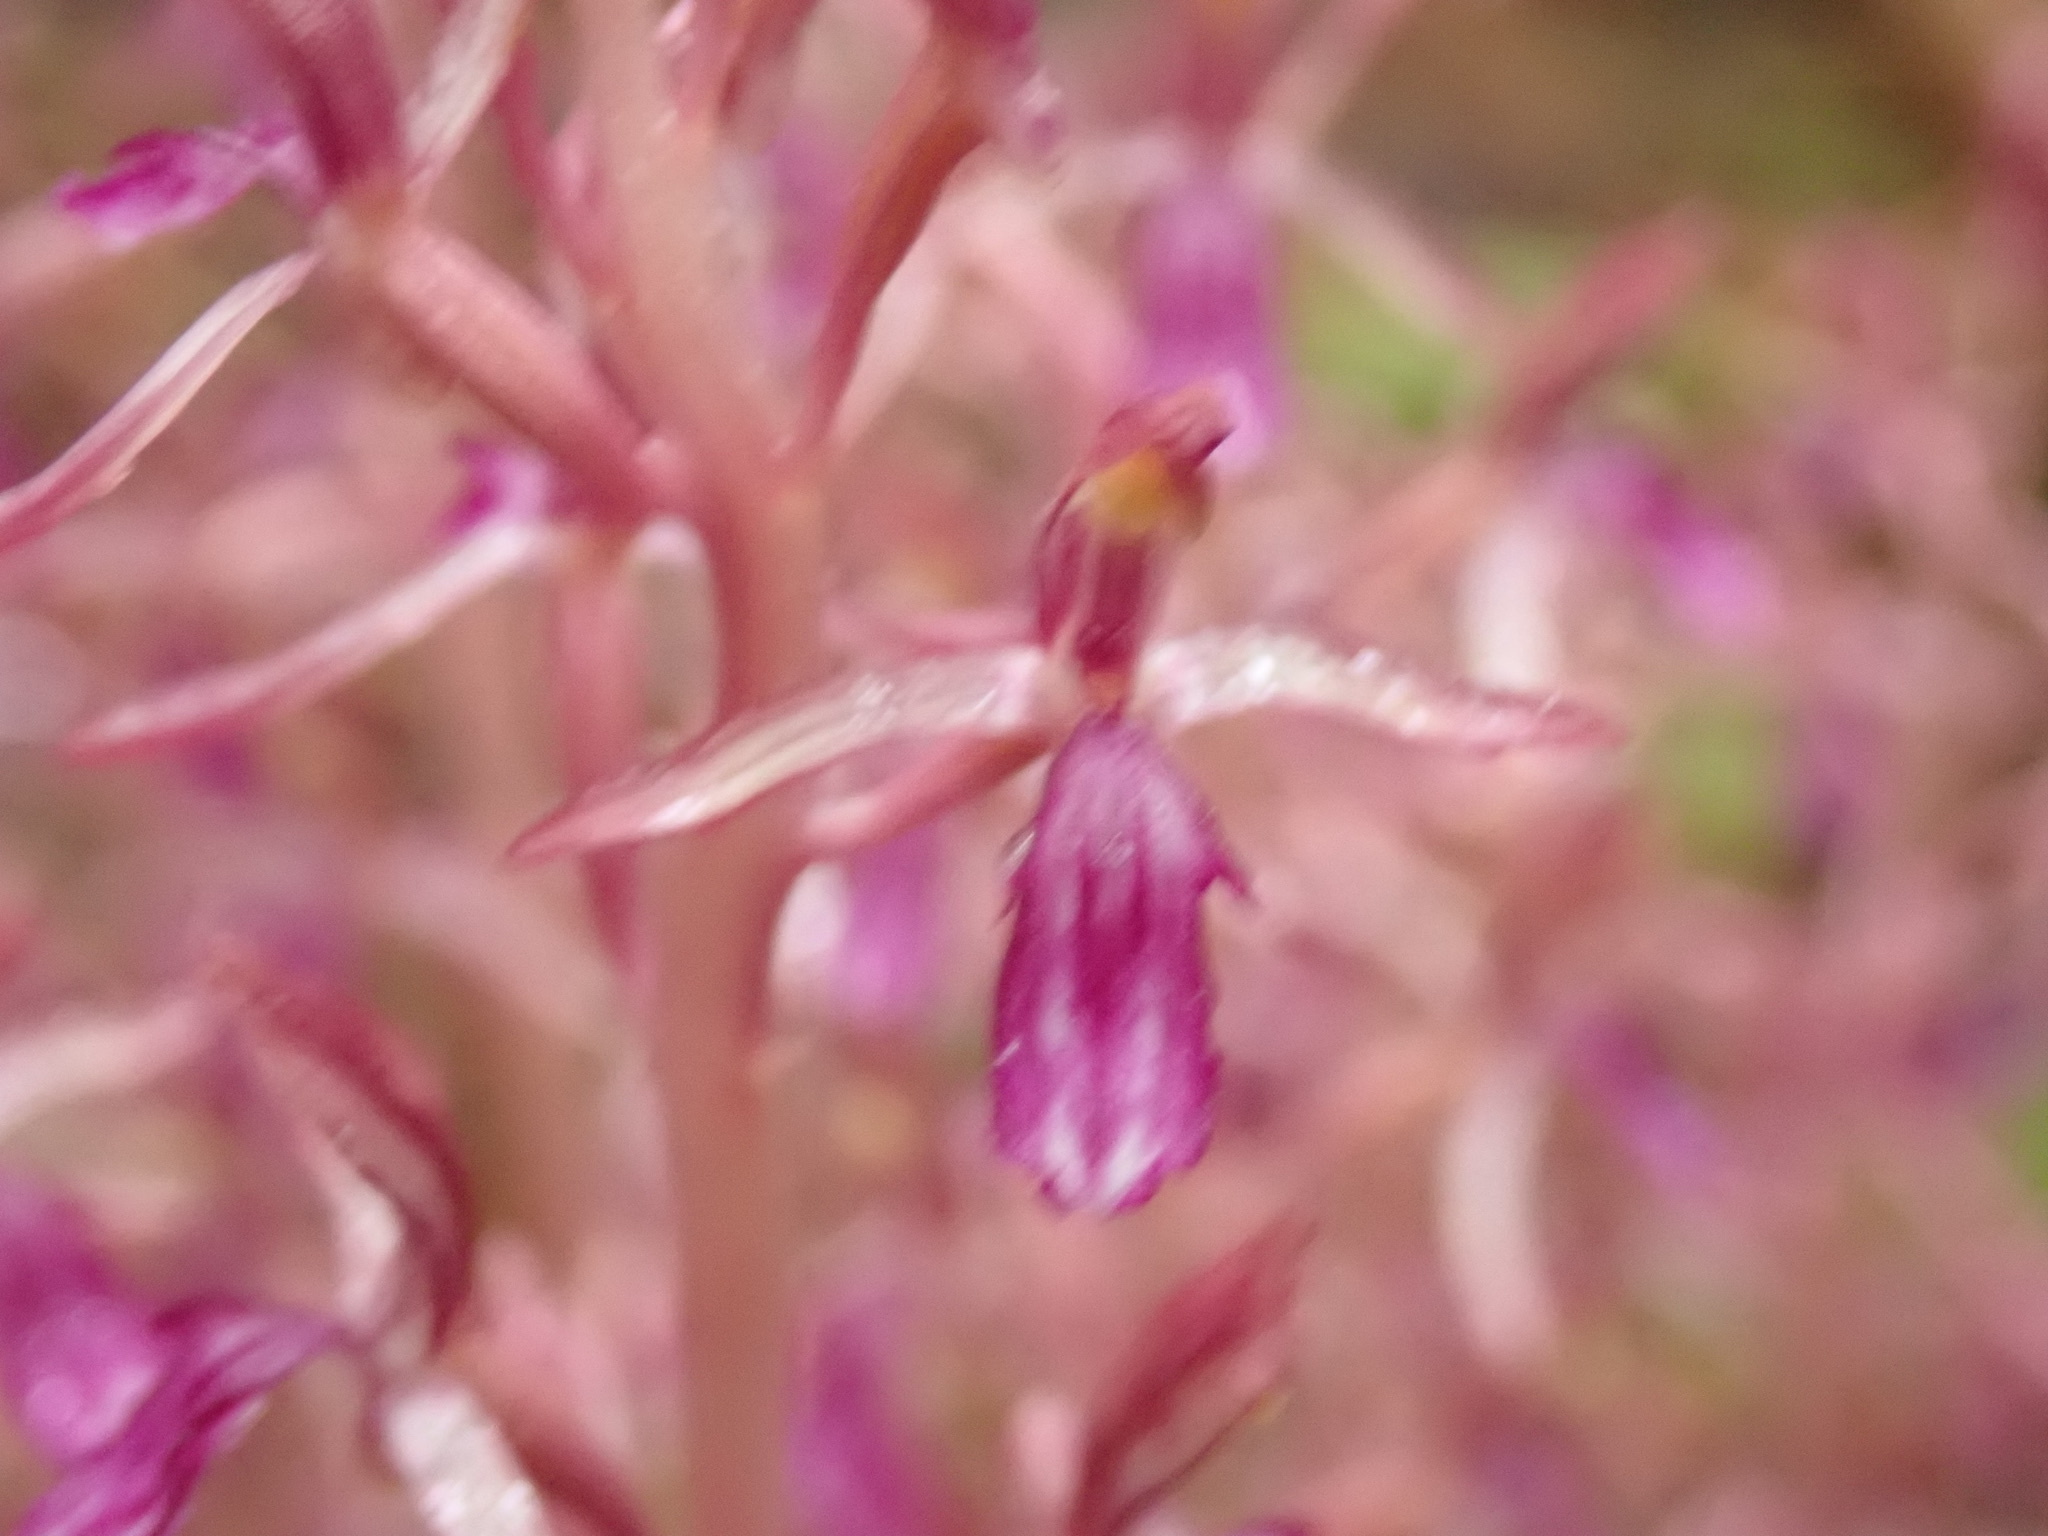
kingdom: Plantae
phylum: Tracheophyta
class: Liliopsida
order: Asparagales
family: Orchidaceae
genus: Corallorhiza
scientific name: Corallorhiza mertensiana
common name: Pacific coralroot
